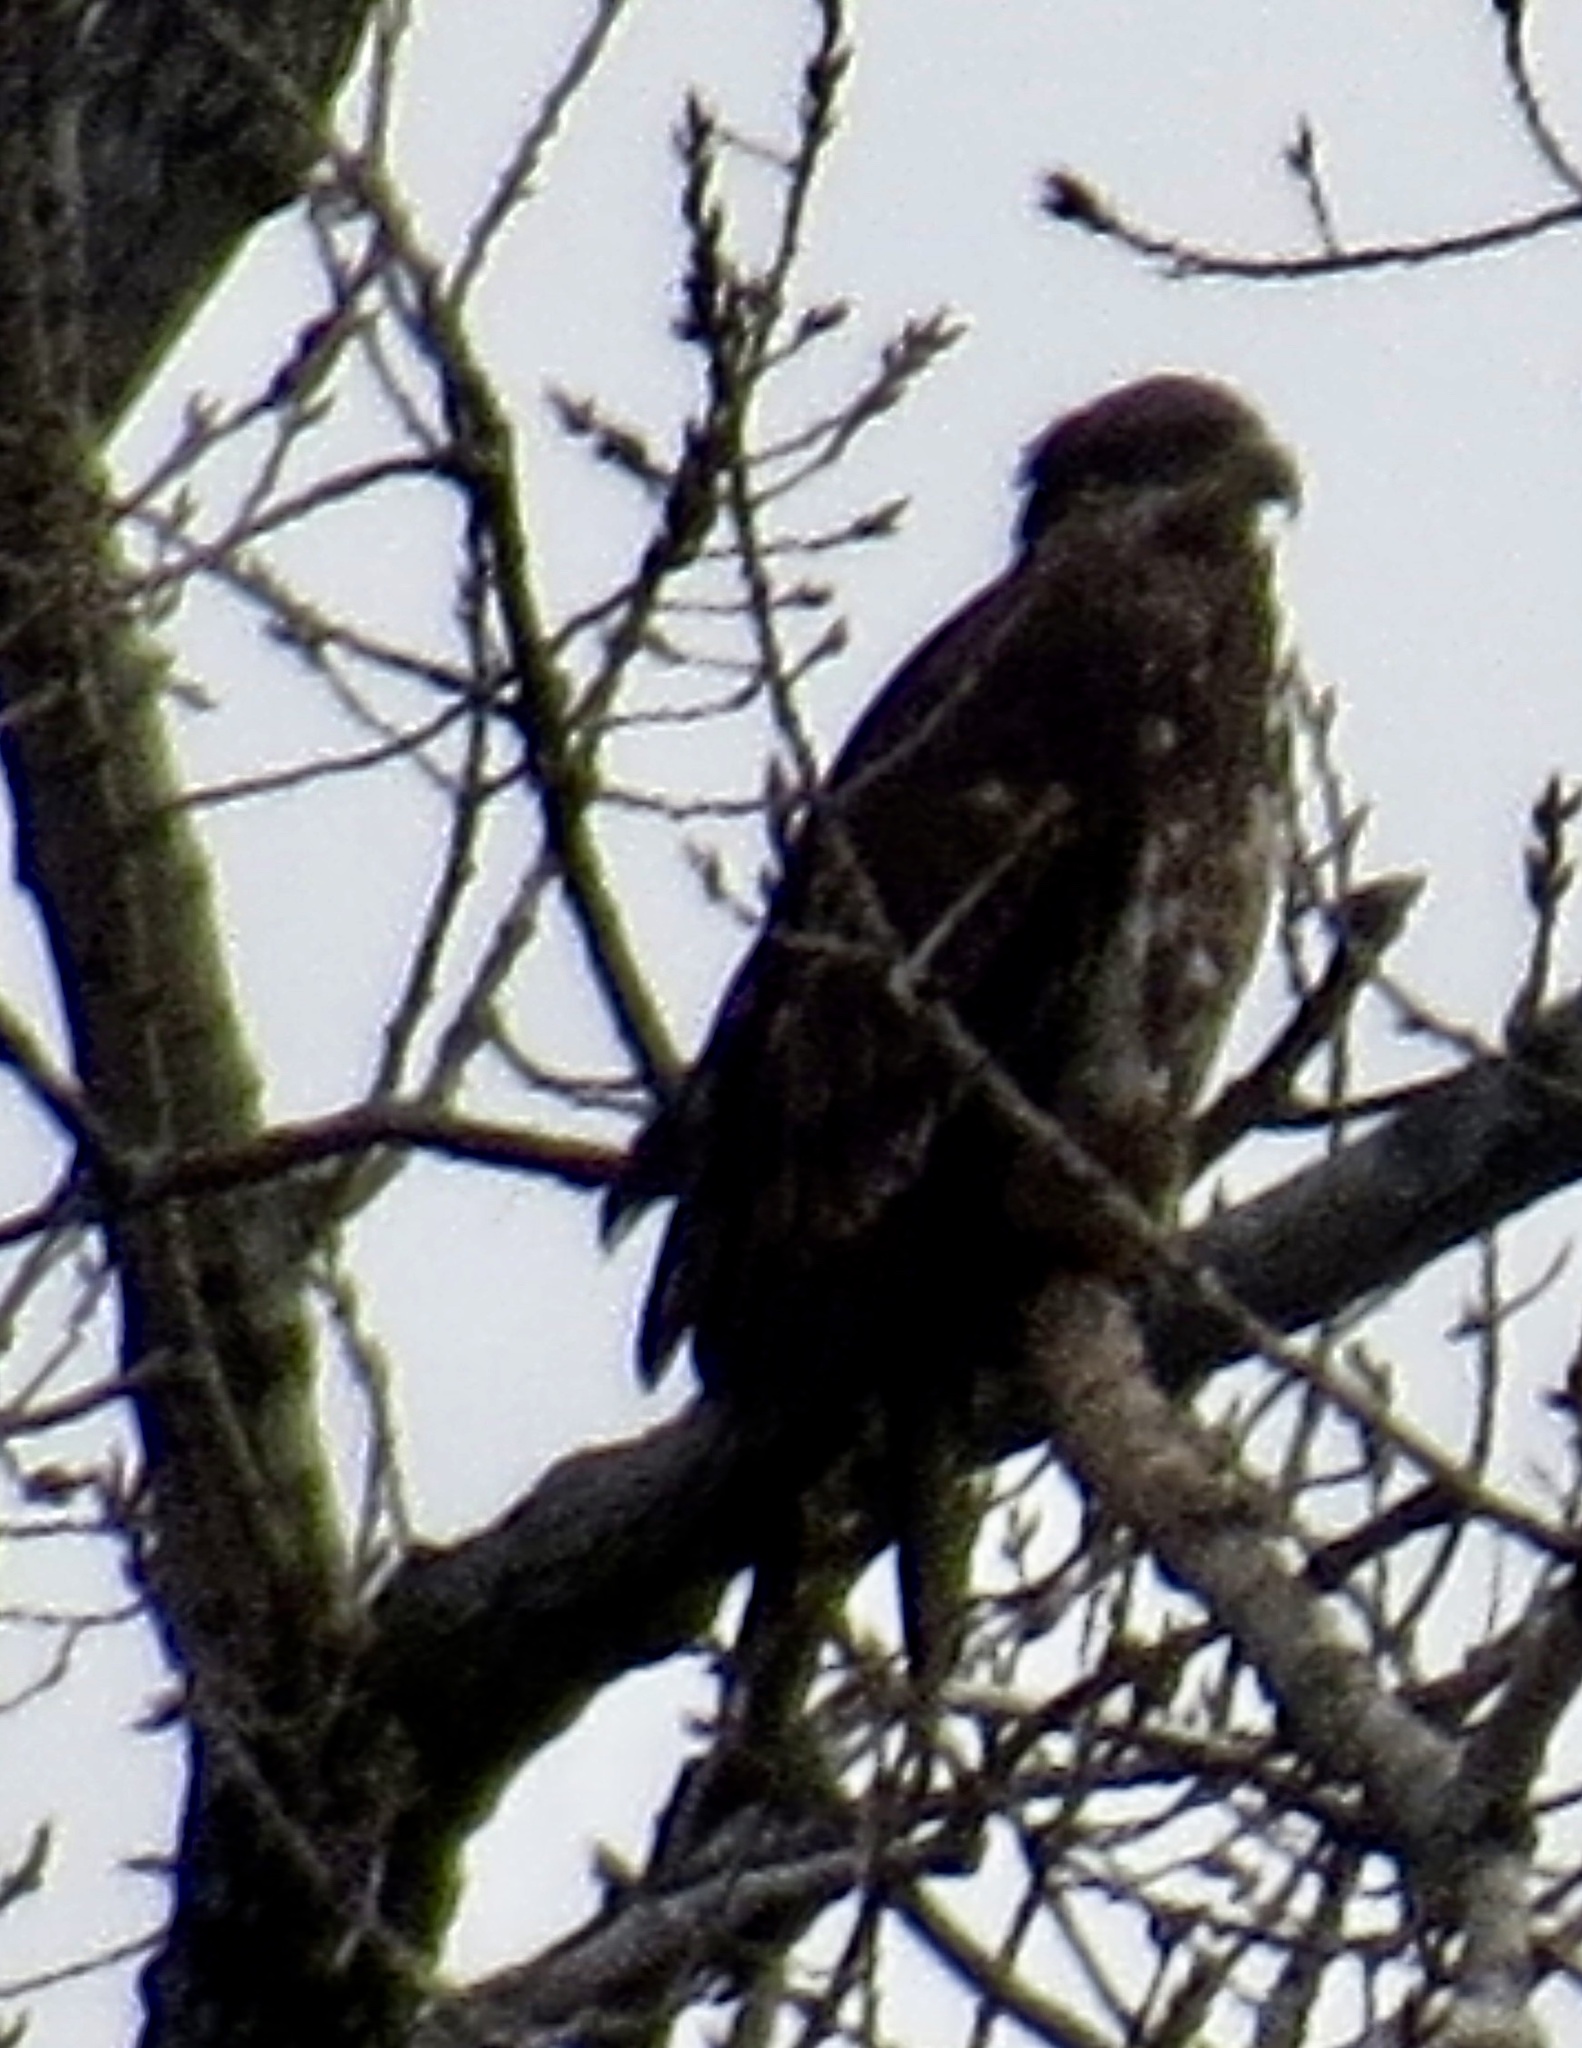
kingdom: Animalia
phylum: Chordata
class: Aves
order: Accipitriformes
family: Accipitridae
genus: Haliaeetus
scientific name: Haliaeetus leucocephalus
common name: Bald eagle
